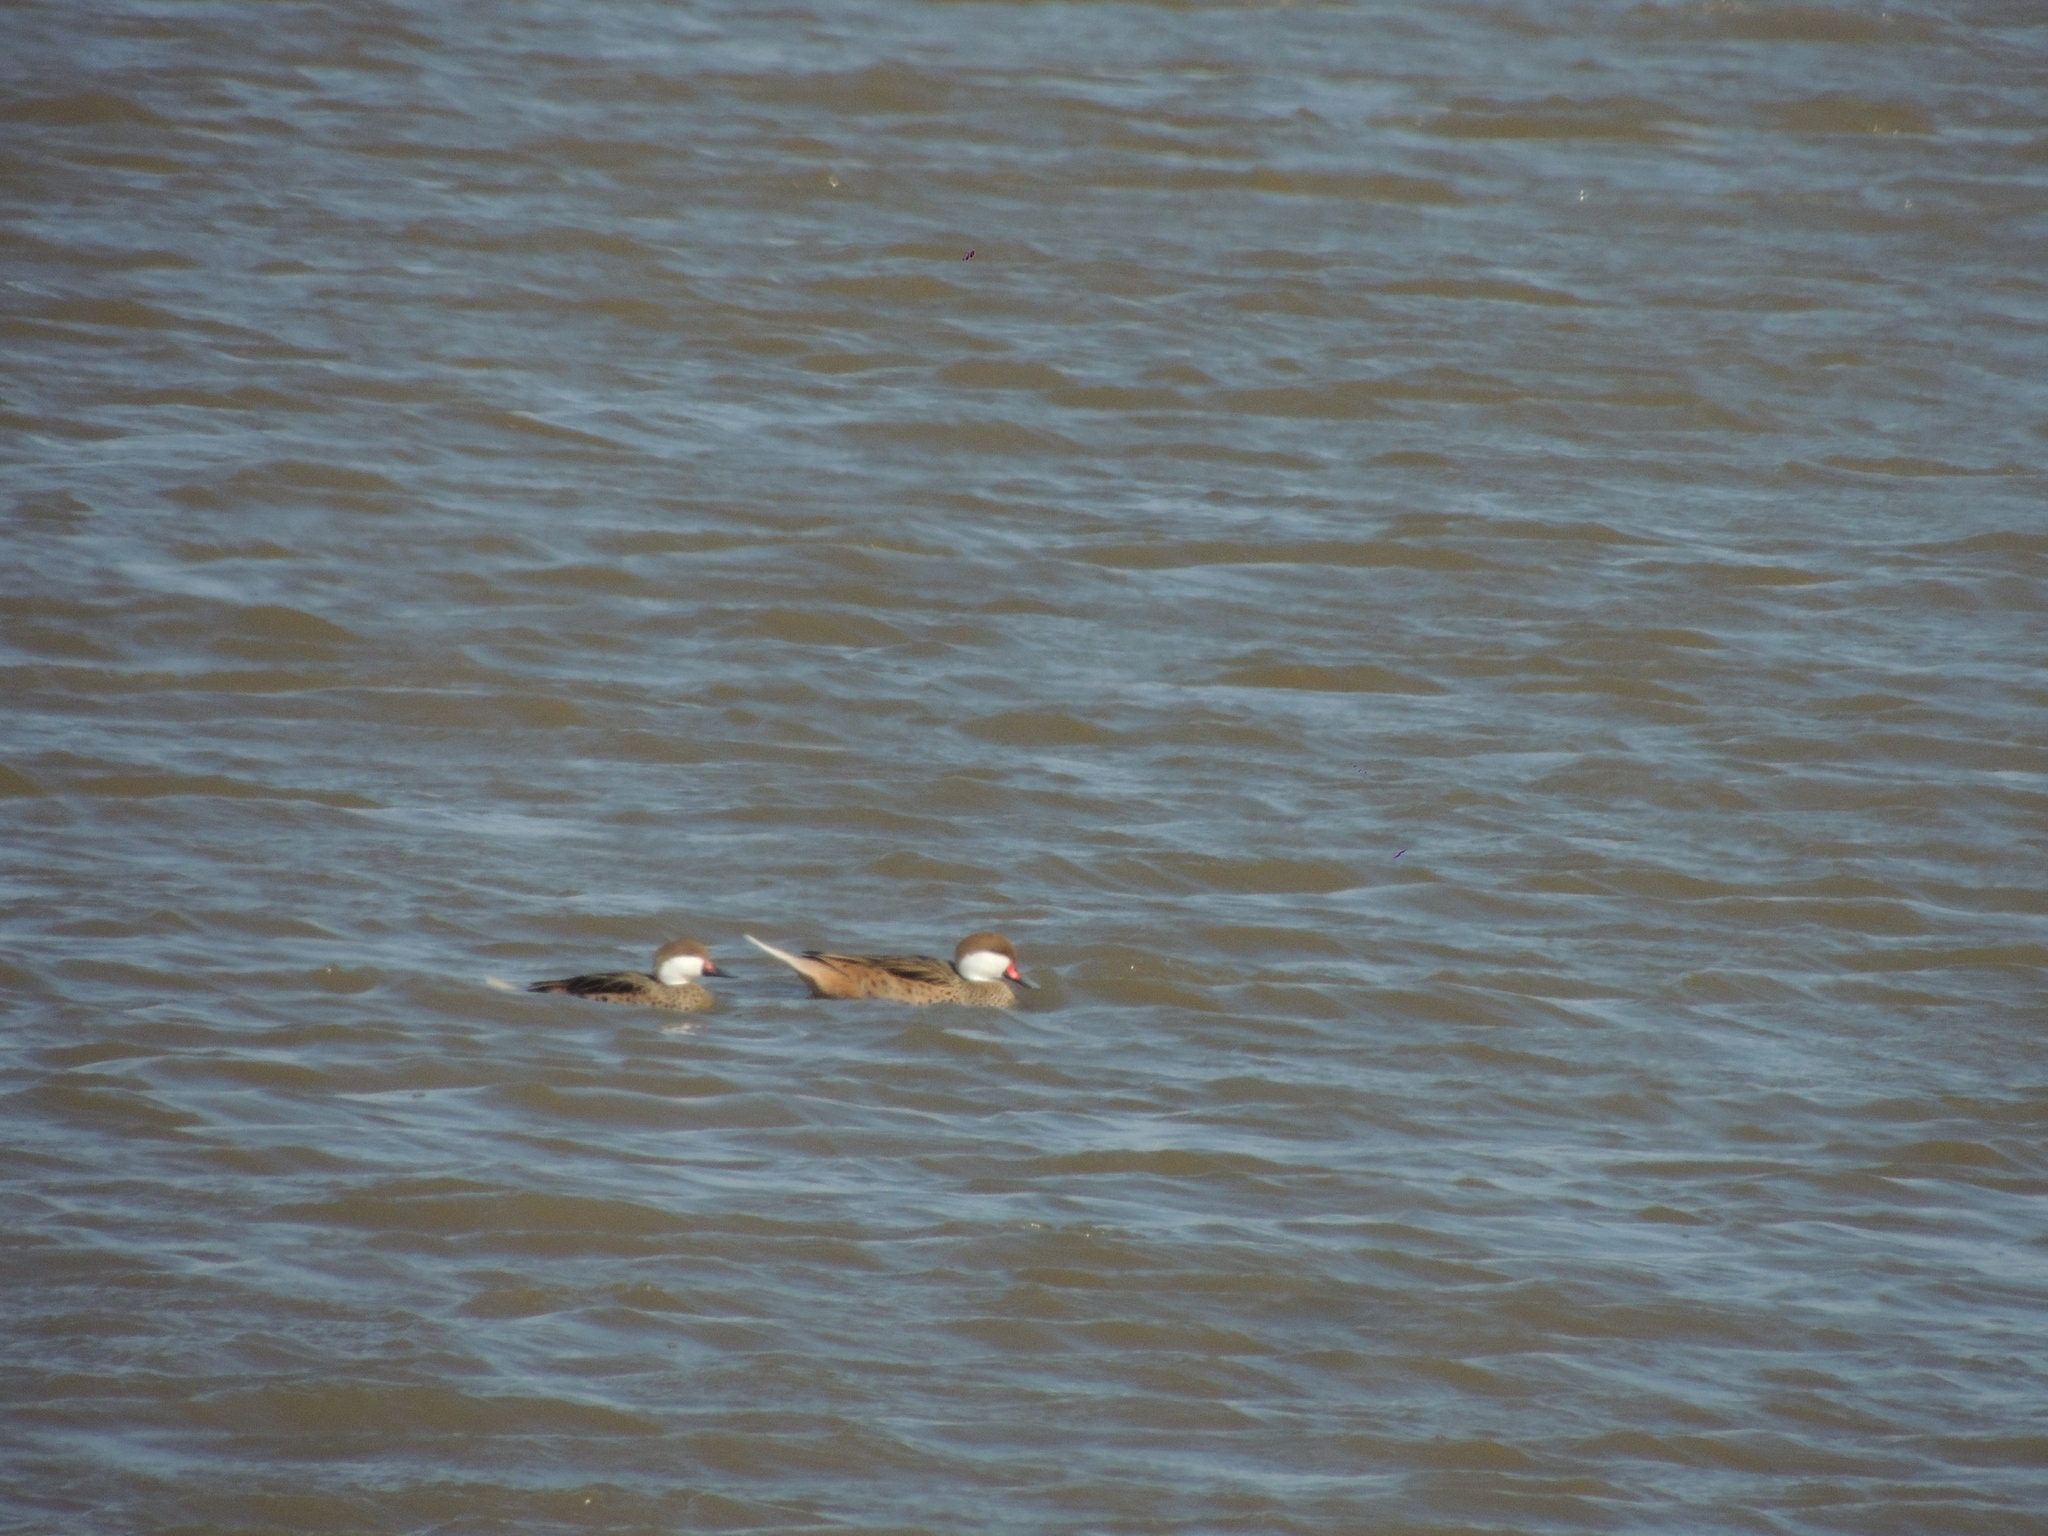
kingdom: Animalia
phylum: Chordata
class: Aves
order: Anseriformes
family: Anatidae
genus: Anas
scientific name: Anas bahamensis
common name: White-cheeked pintail
